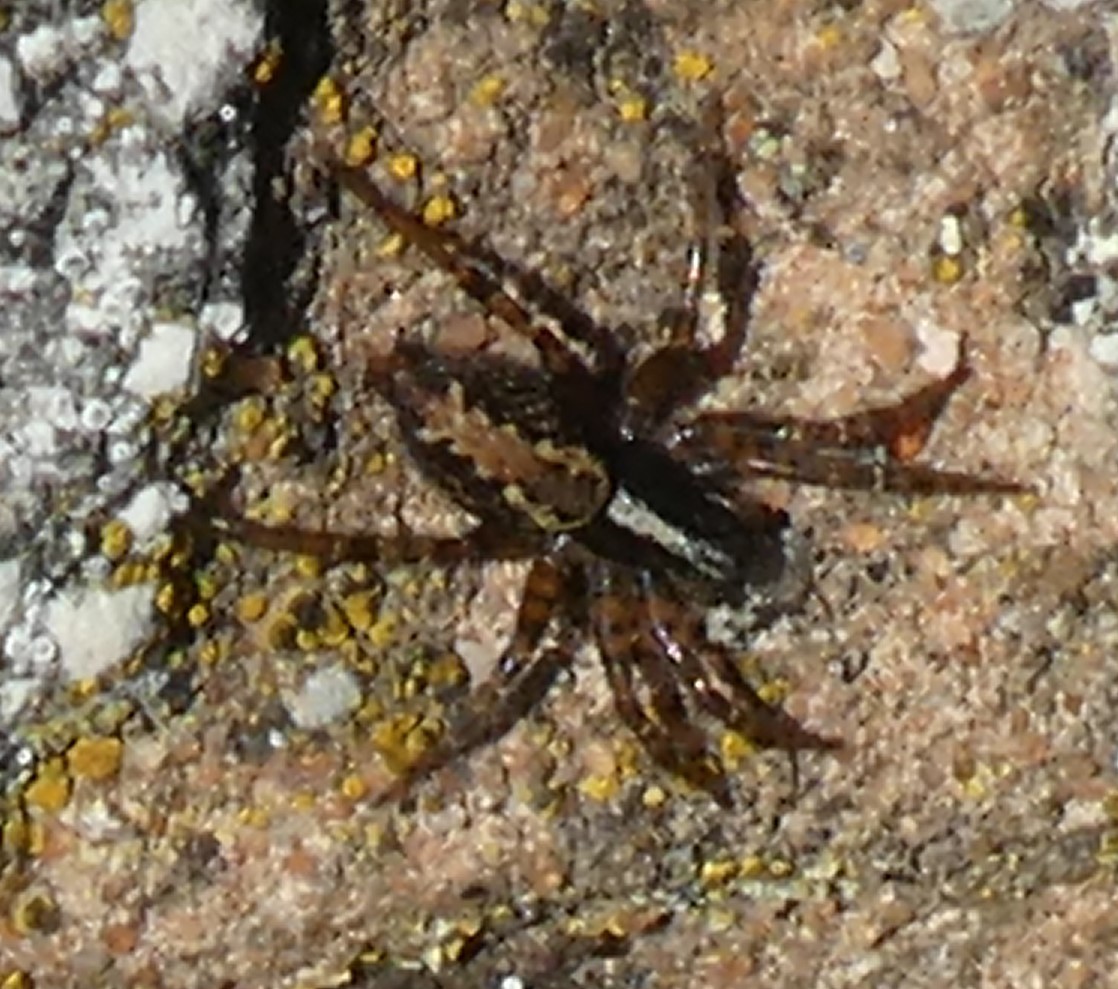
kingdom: Animalia
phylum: Arthropoda
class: Arachnida
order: Araneae
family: Agelenidae
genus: Textrix
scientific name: Textrix denticulata
